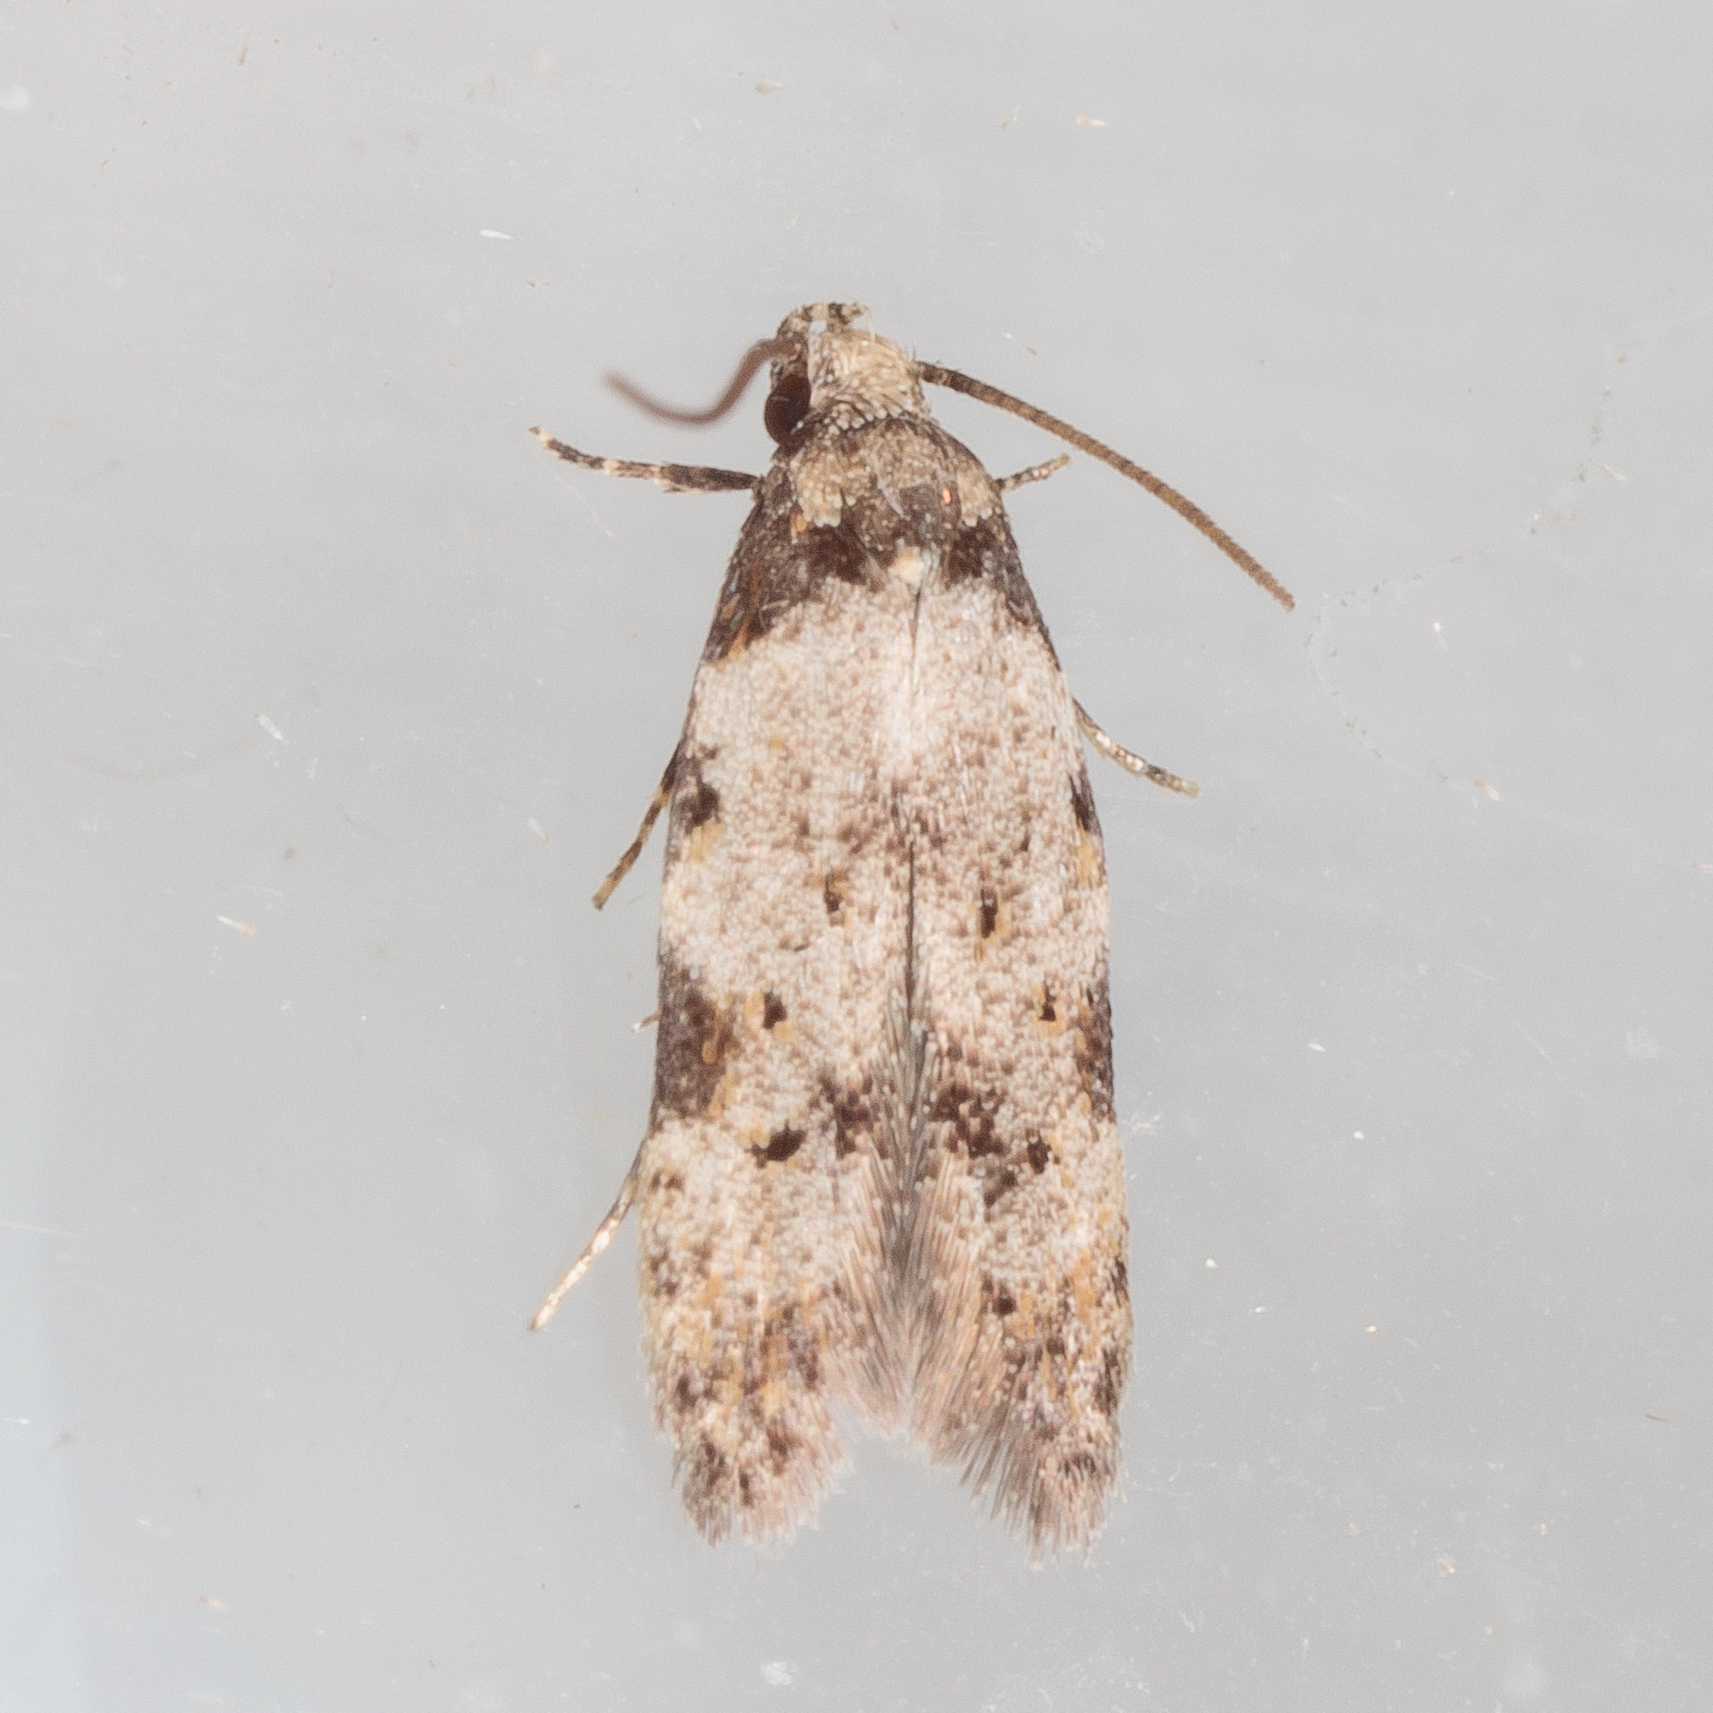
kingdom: Animalia
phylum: Arthropoda
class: Insecta
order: Lepidoptera
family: Autostichidae
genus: Taygete
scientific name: Taygete attributella
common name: Triangle-marked twirler moth
